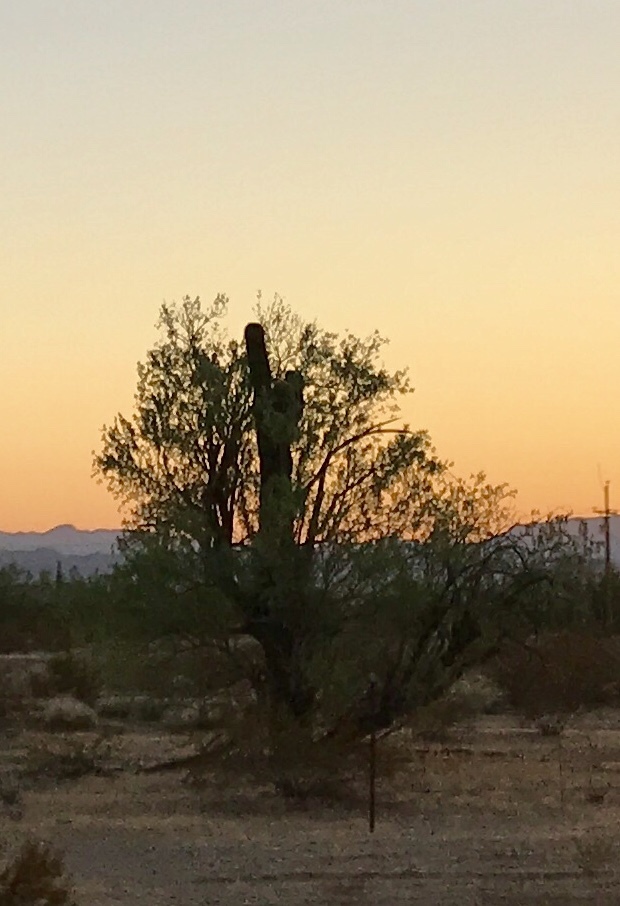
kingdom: Plantae
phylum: Tracheophyta
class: Magnoliopsida
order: Caryophyllales
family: Cactaceae
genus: Carnegiea
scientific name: Carnegiea gigantea
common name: Saguaro
